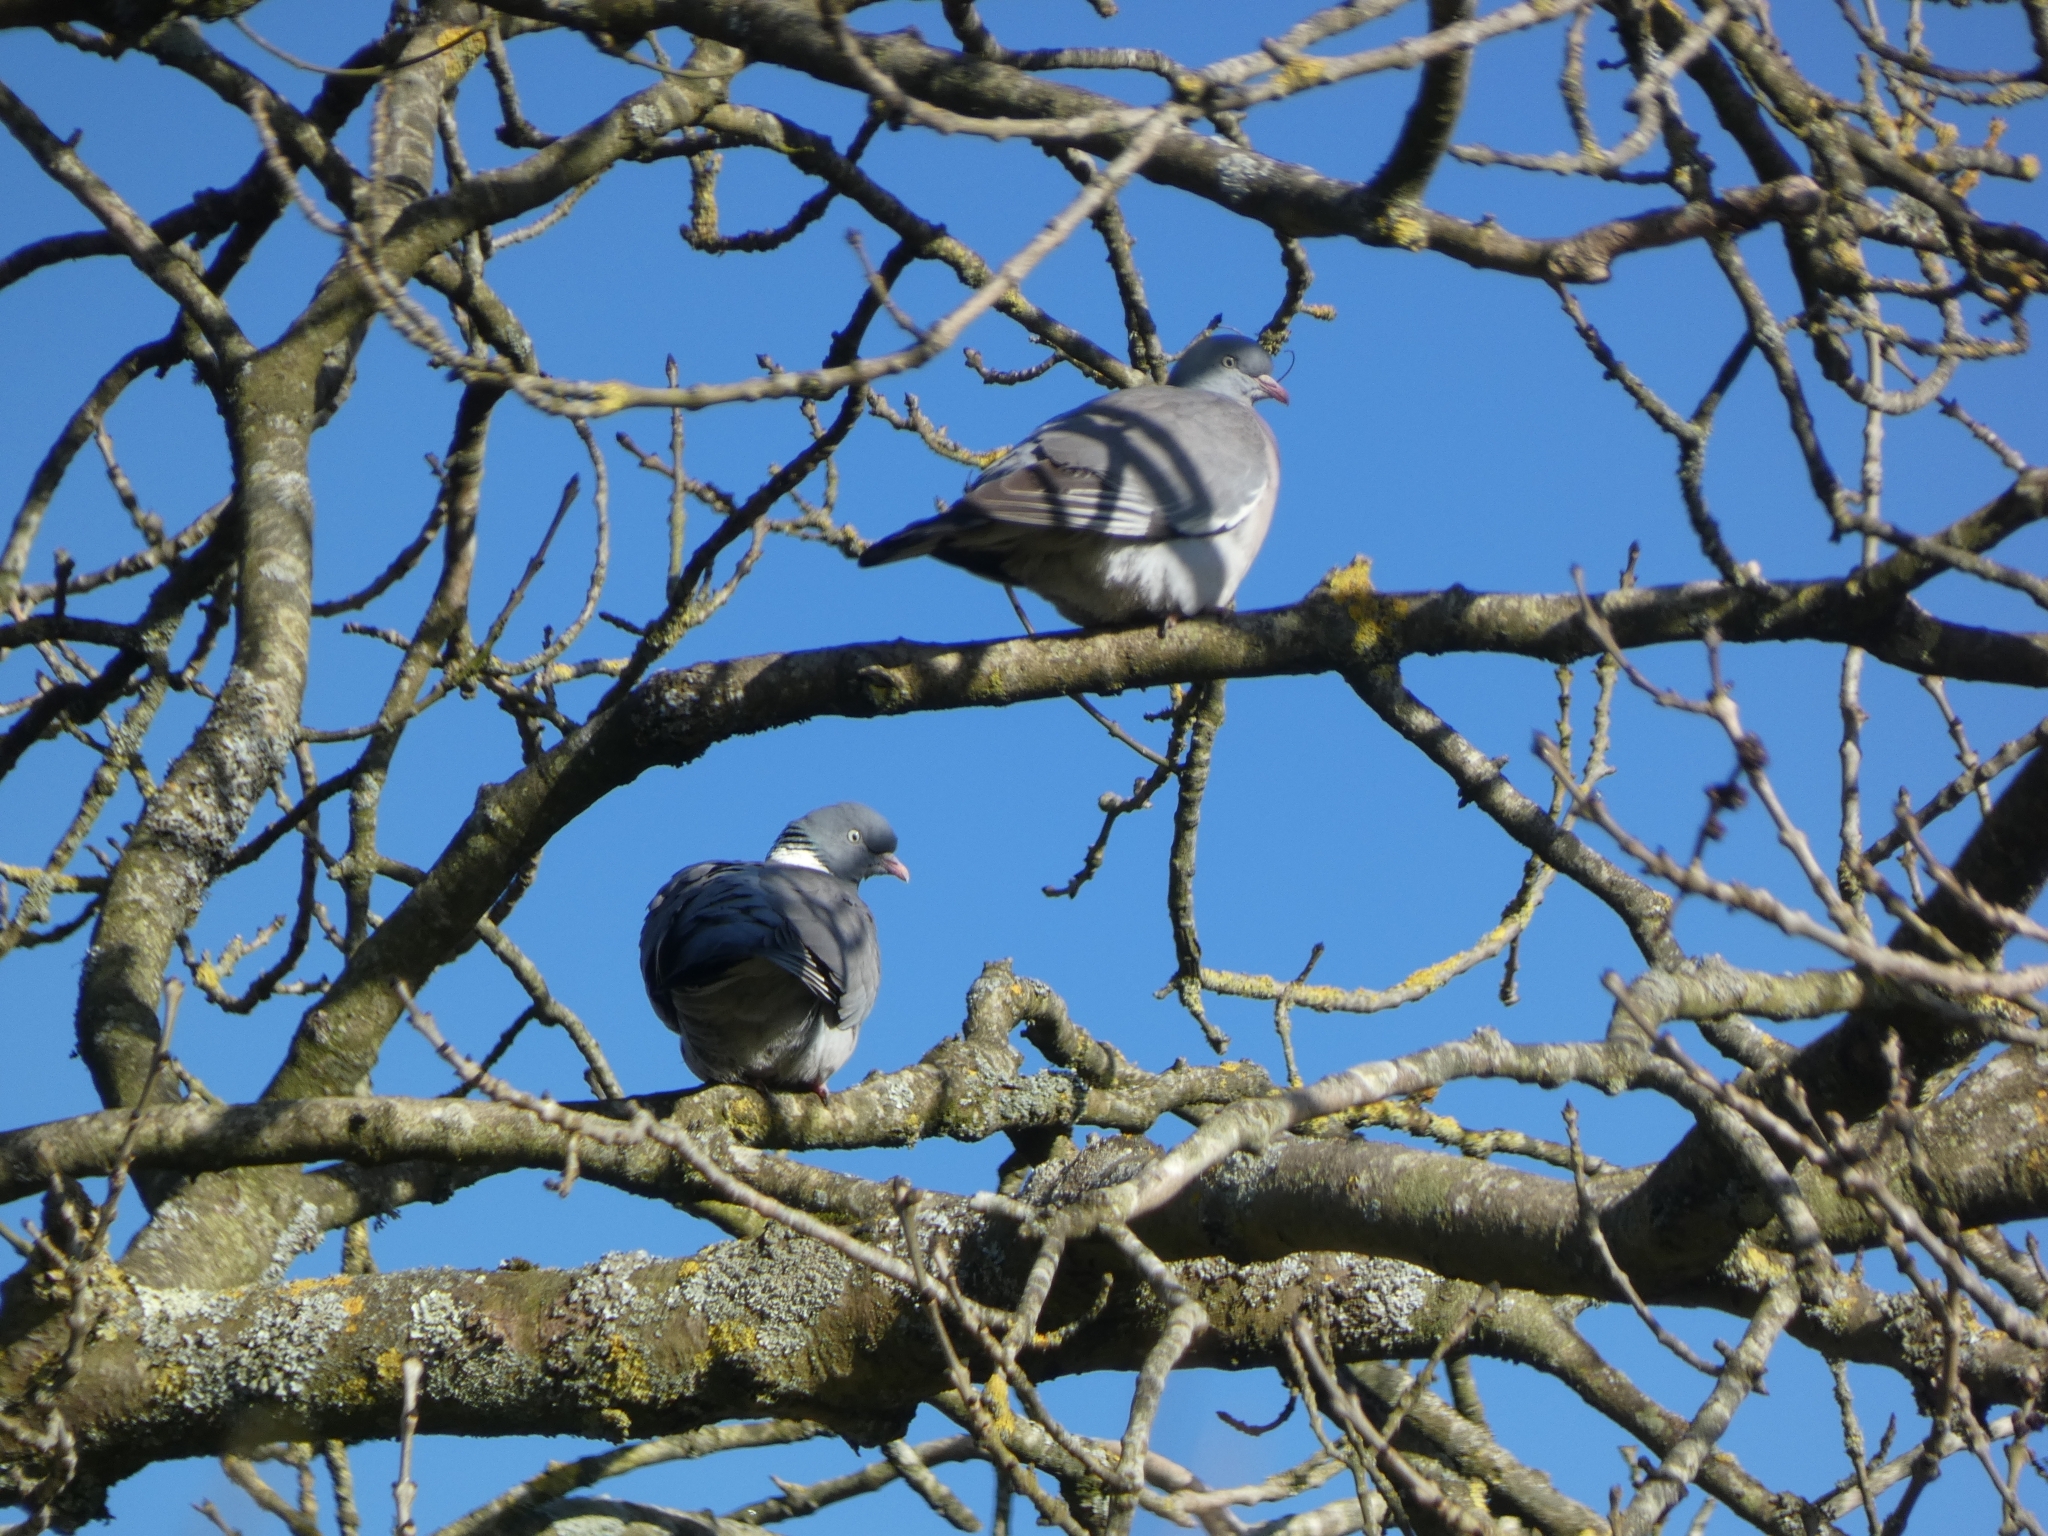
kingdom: Animalia
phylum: Chordata
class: Aves
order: Columbiformes
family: Columbidae
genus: Columba
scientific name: Columba palumbus
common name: Common wood pigeon
